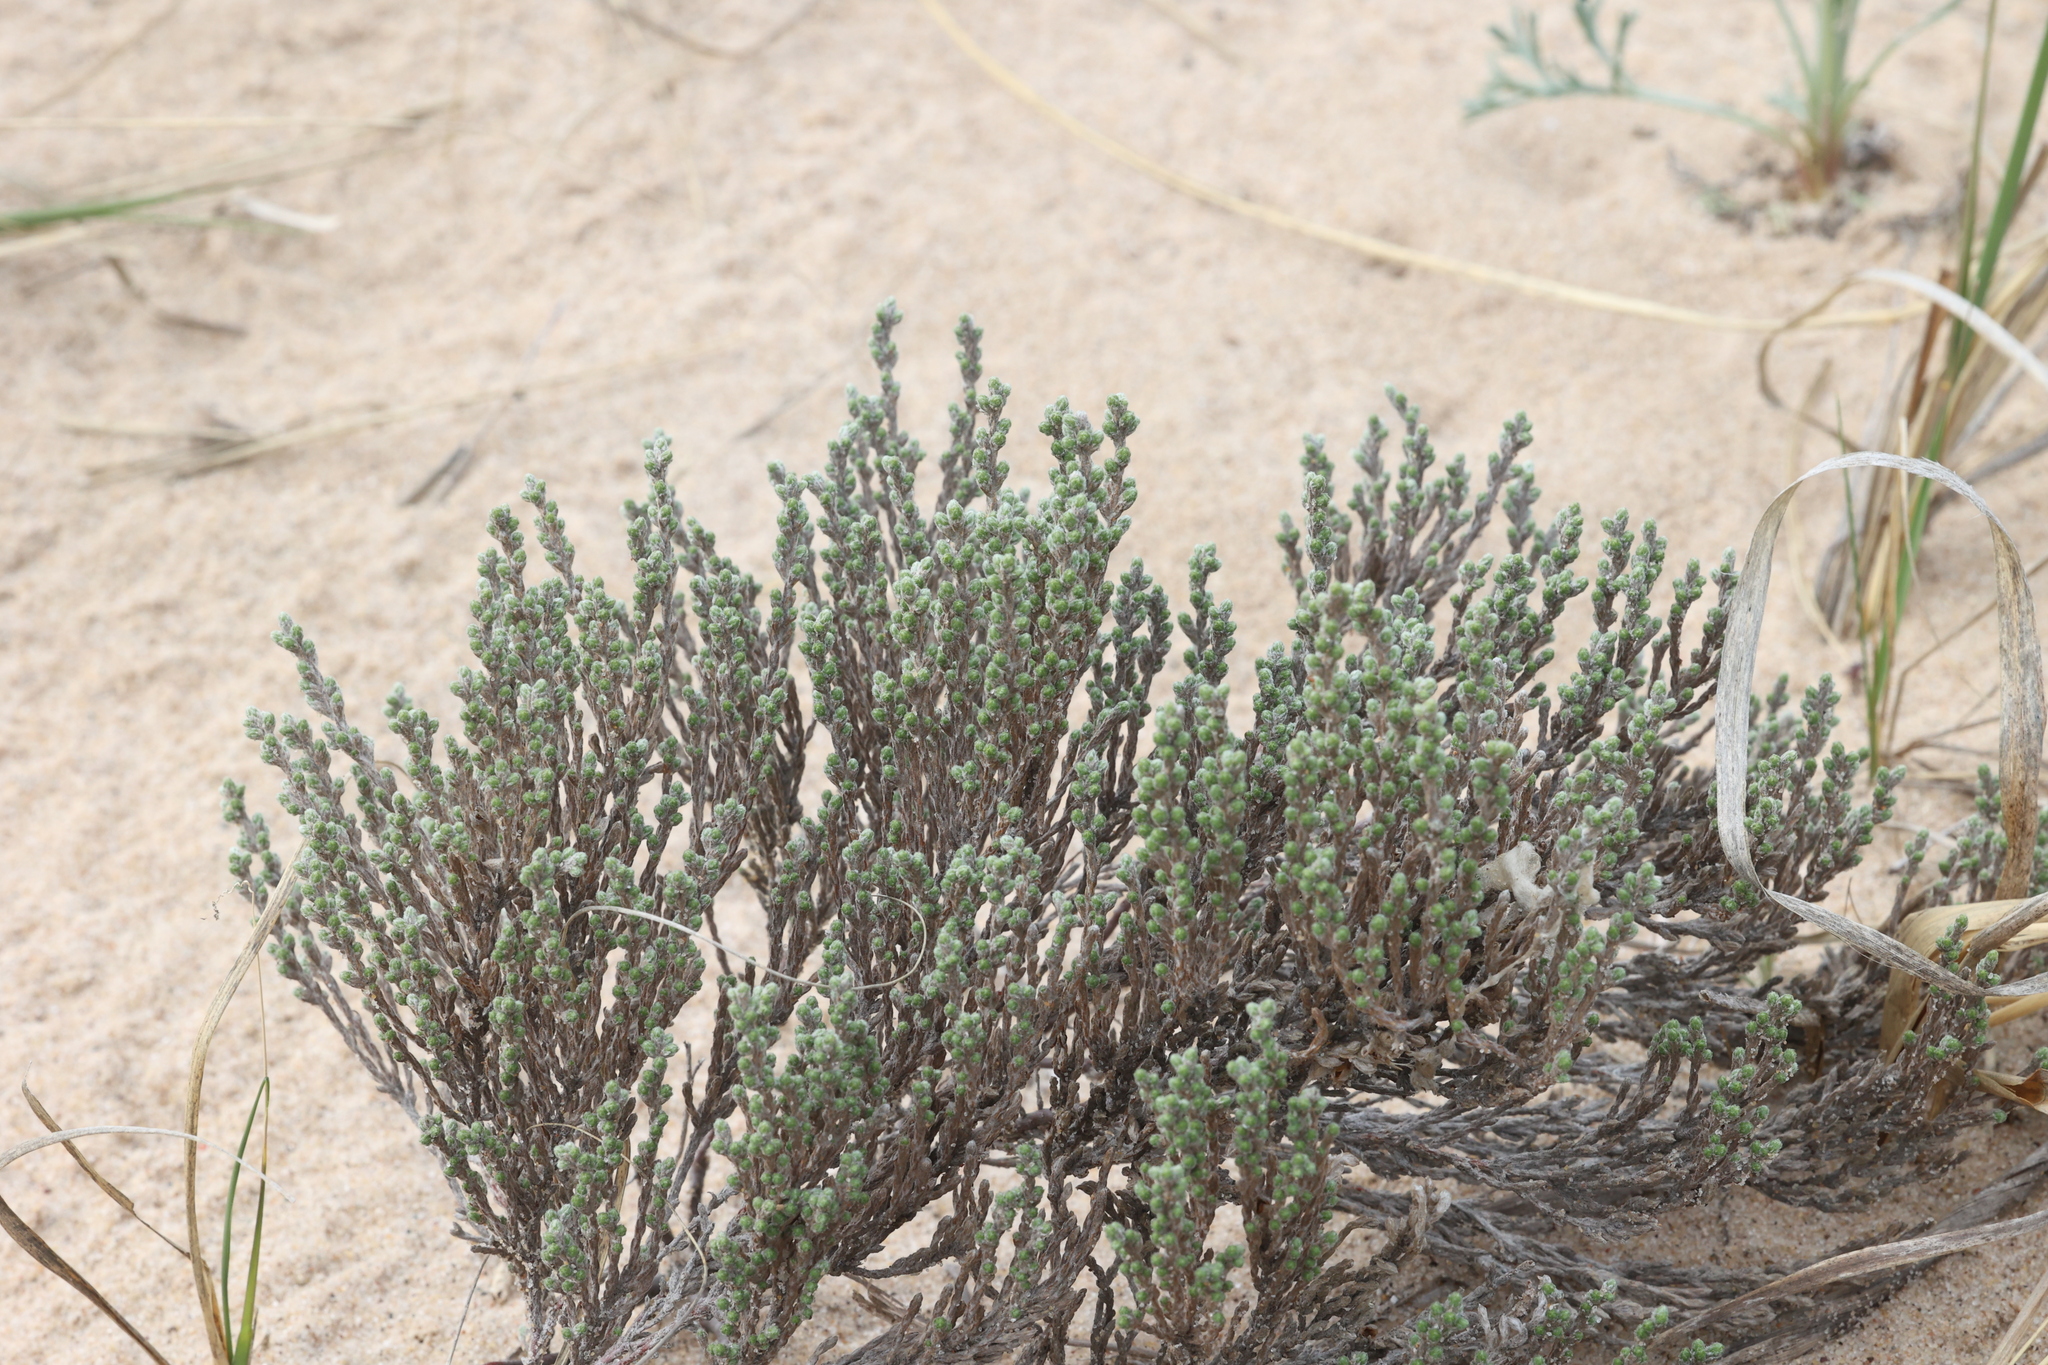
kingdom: Plantae
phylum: Tracheophyta
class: Magnoliopsida
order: Malvales
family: Cistaceae
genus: Hudsonia
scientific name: Hudsonia tomentosa
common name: Beach-heath
